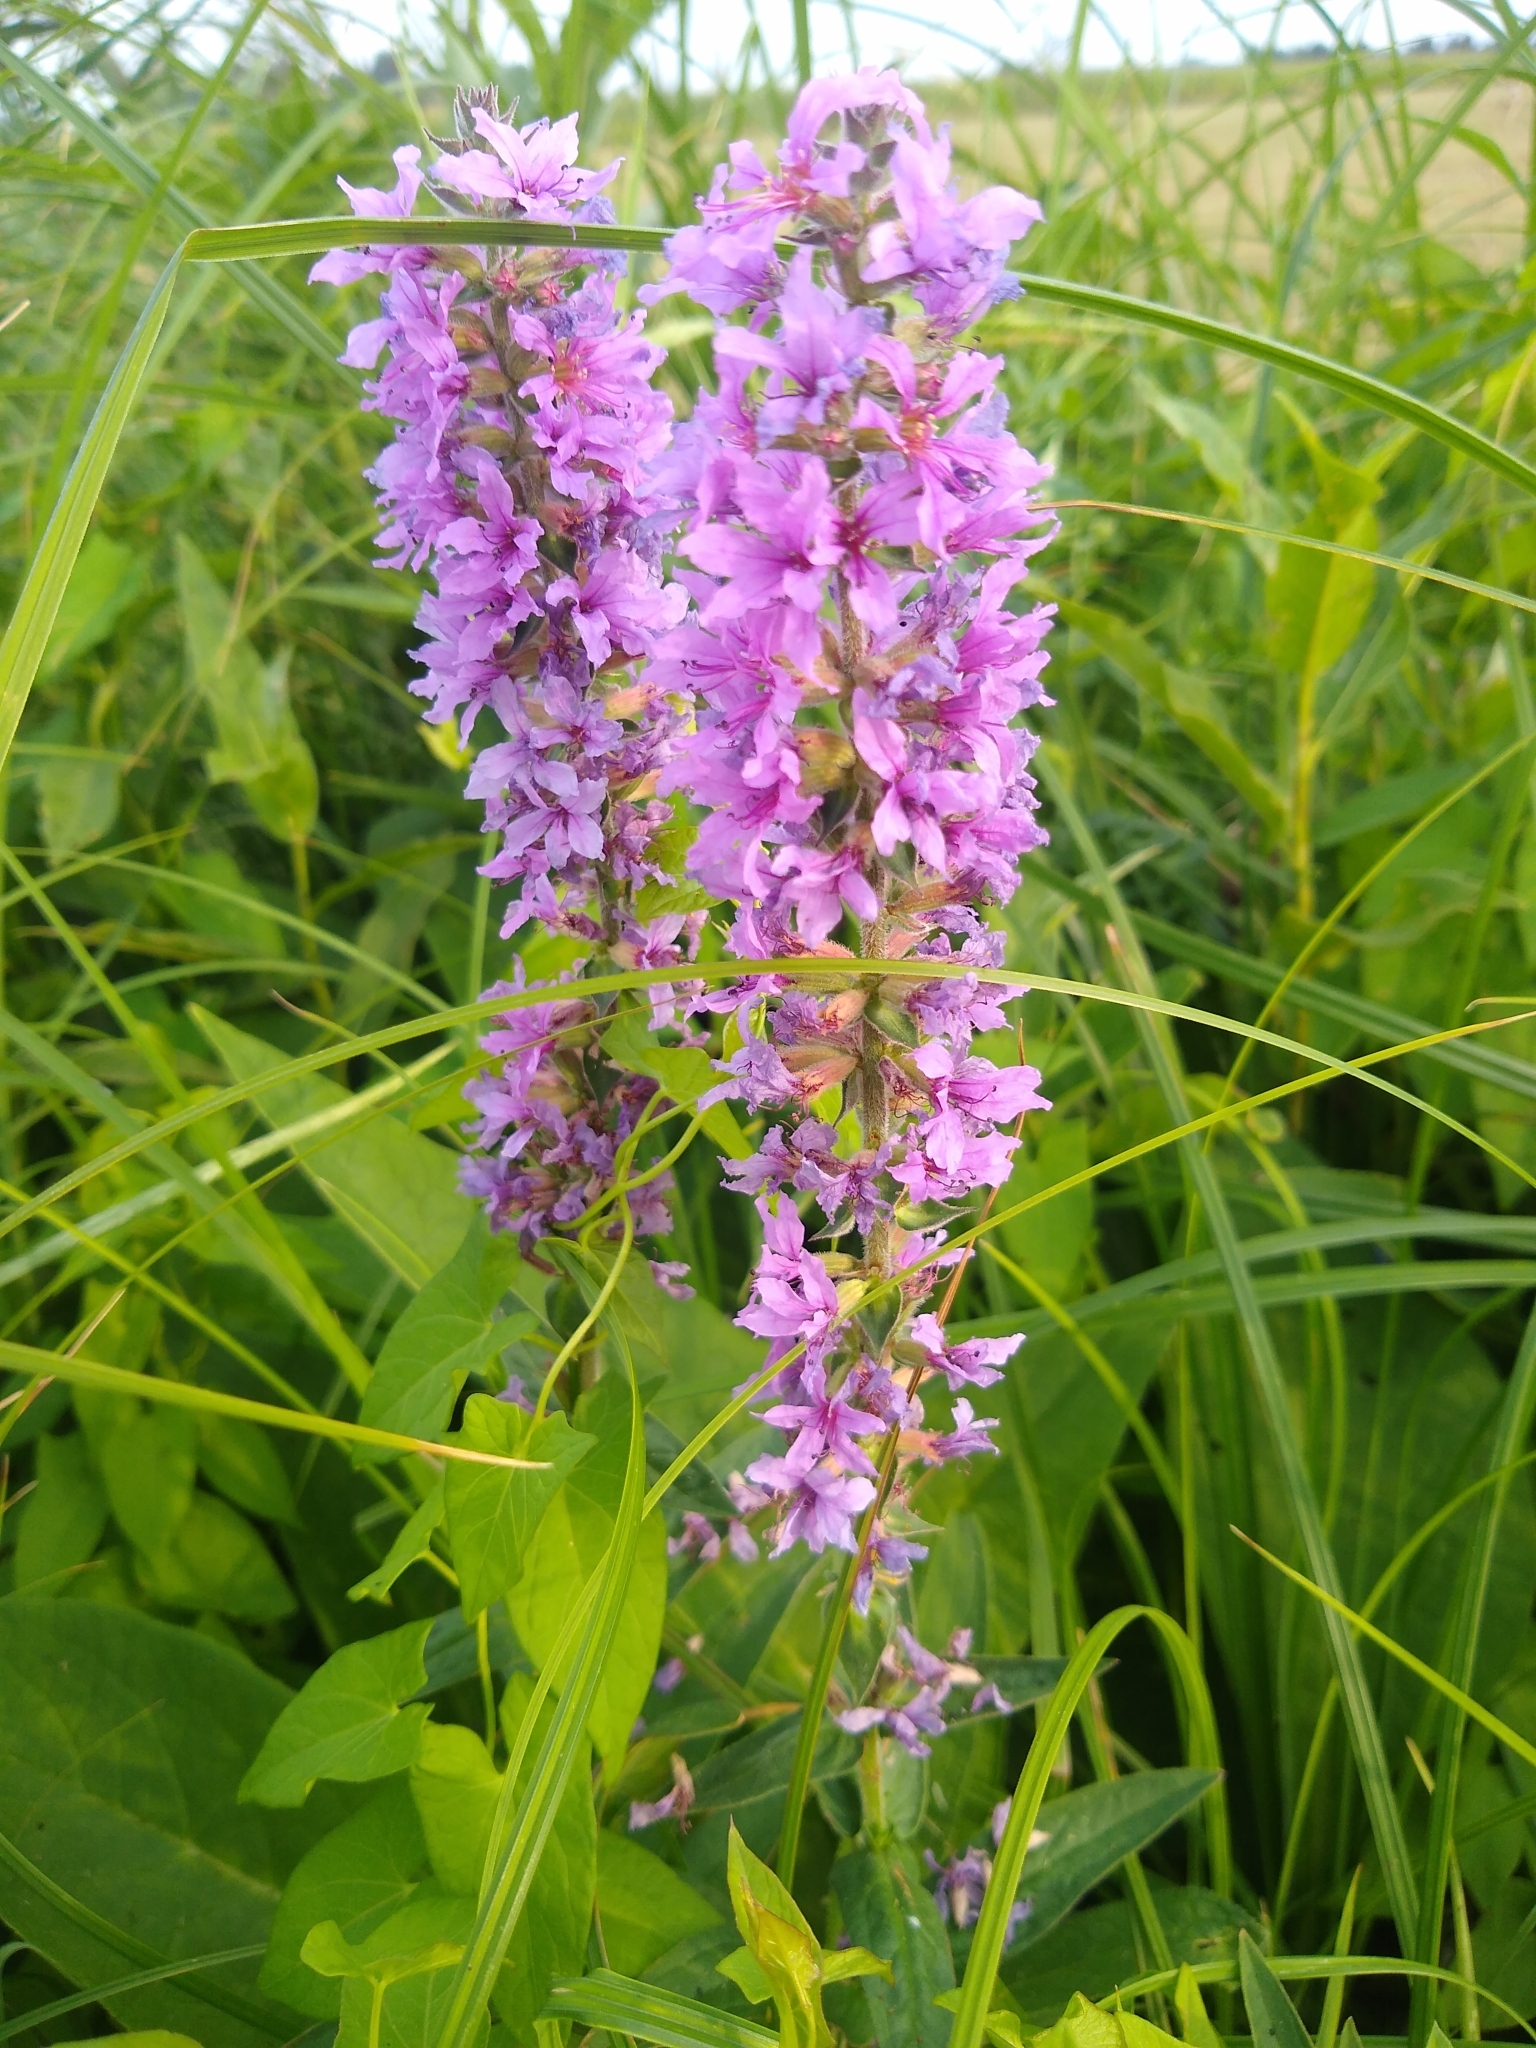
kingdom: Plantae
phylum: Tracheophyta
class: Magnoliopsida
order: Myrtales
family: Lythraceae
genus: Lythrum
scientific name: Lythrum salicaria
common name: Purple loosestrife
